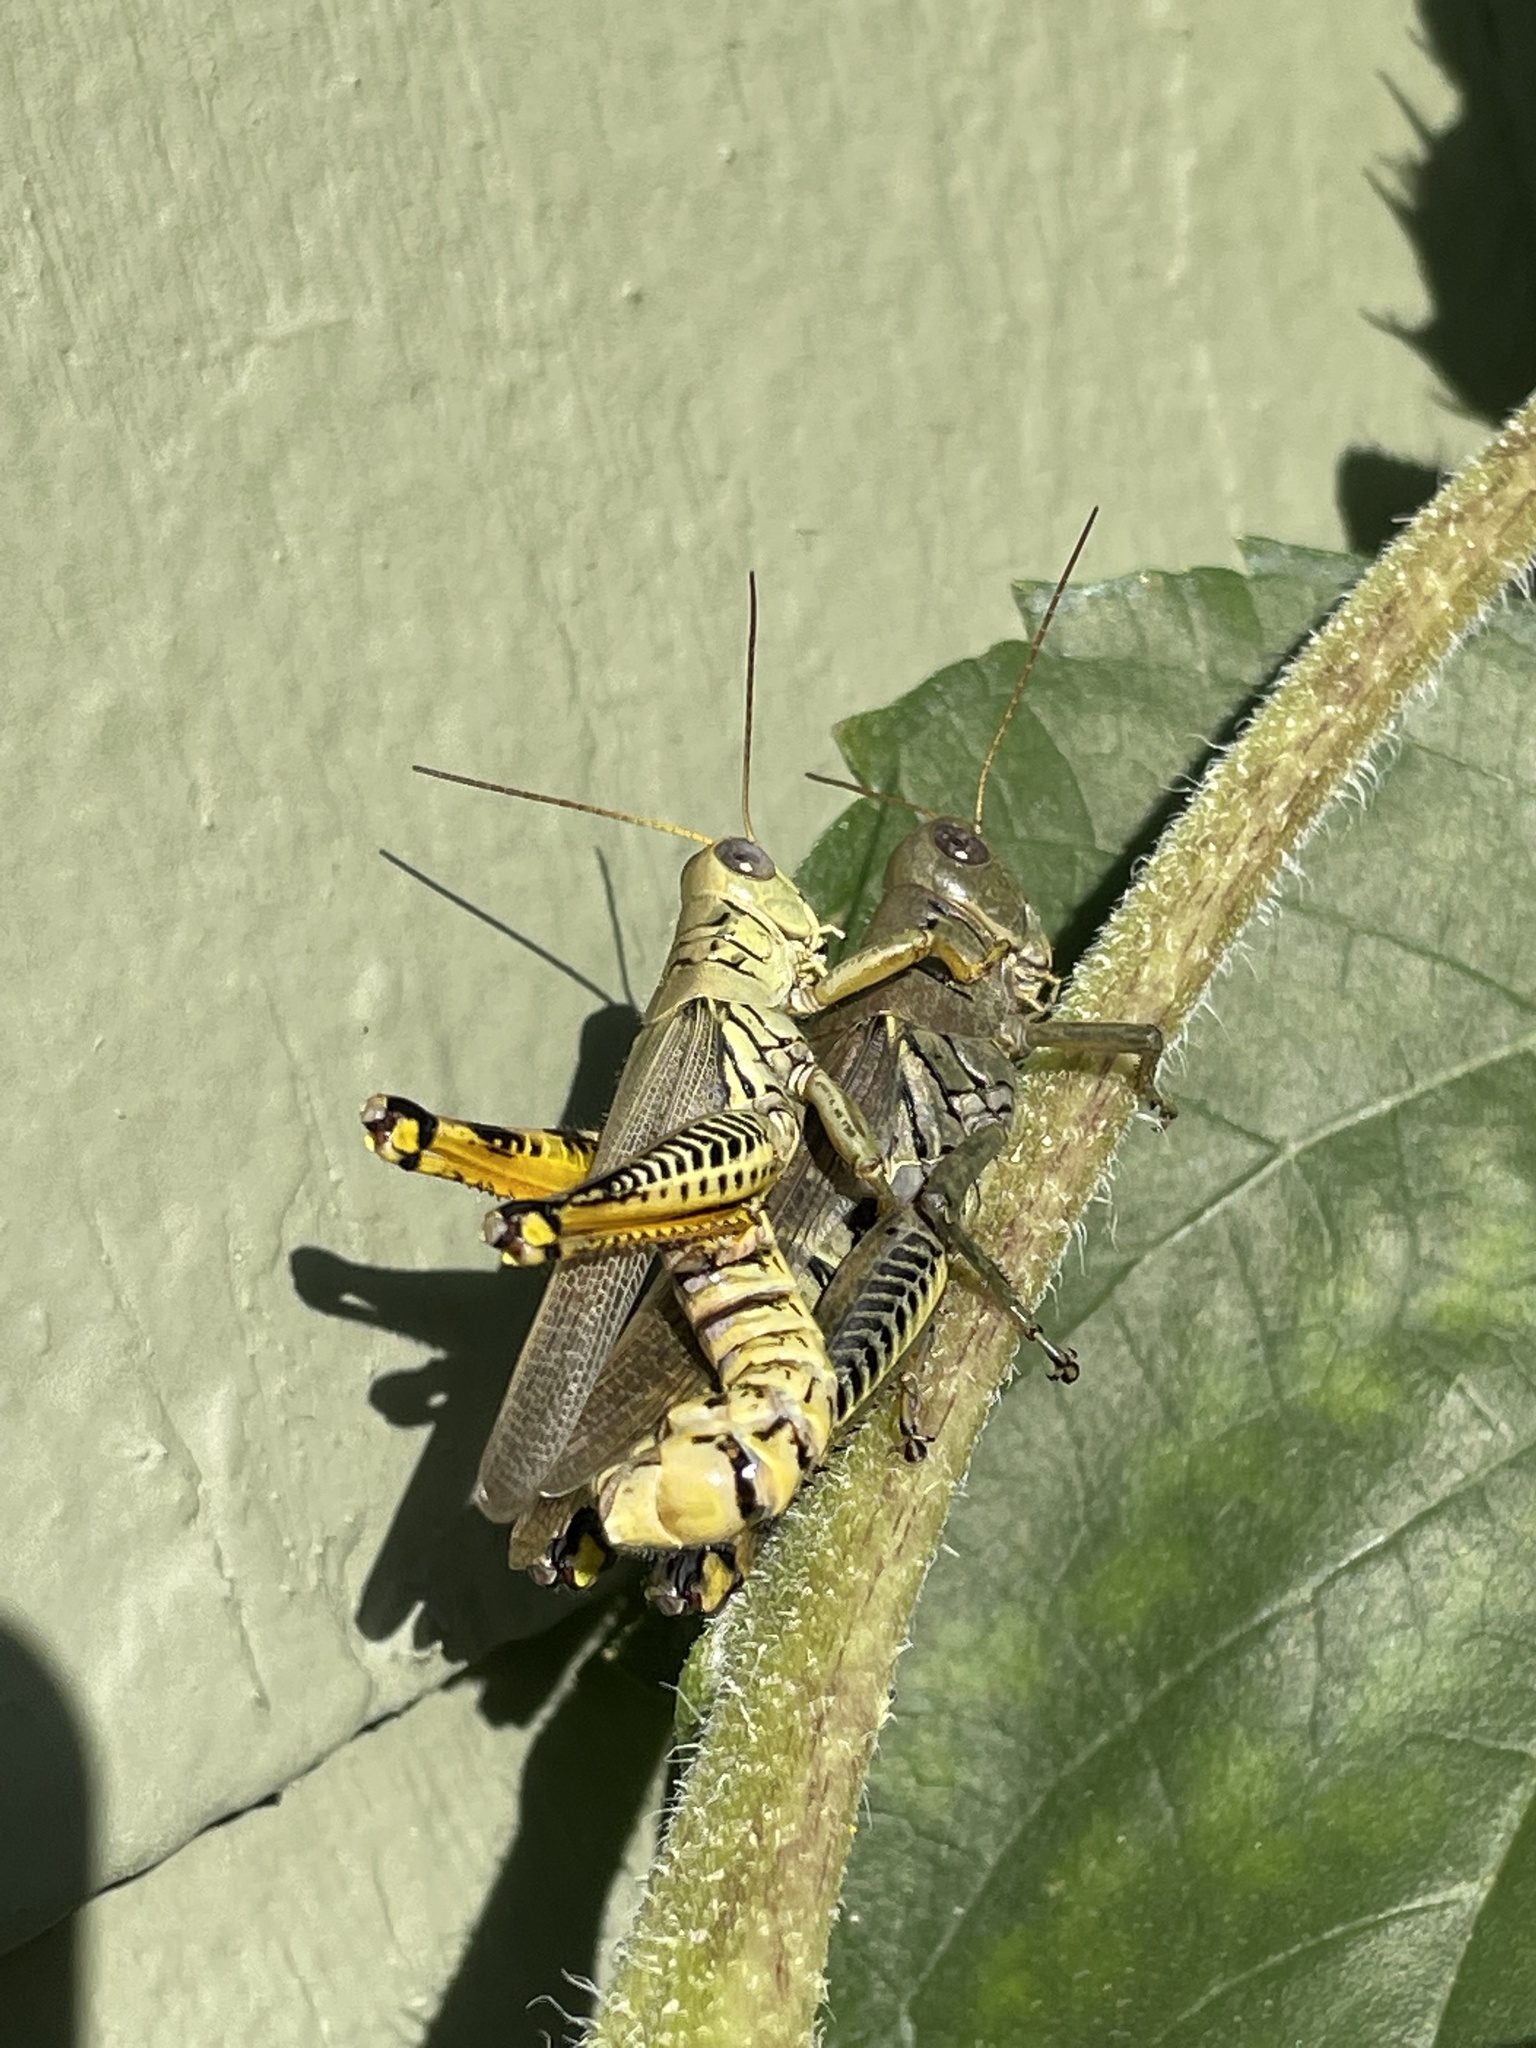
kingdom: Animalia
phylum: Arthropoda
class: Insecta
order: Orthoptera
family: Acrididae
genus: Melanoplus
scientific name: Melanoplus differentialis
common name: Differential grasshopper
